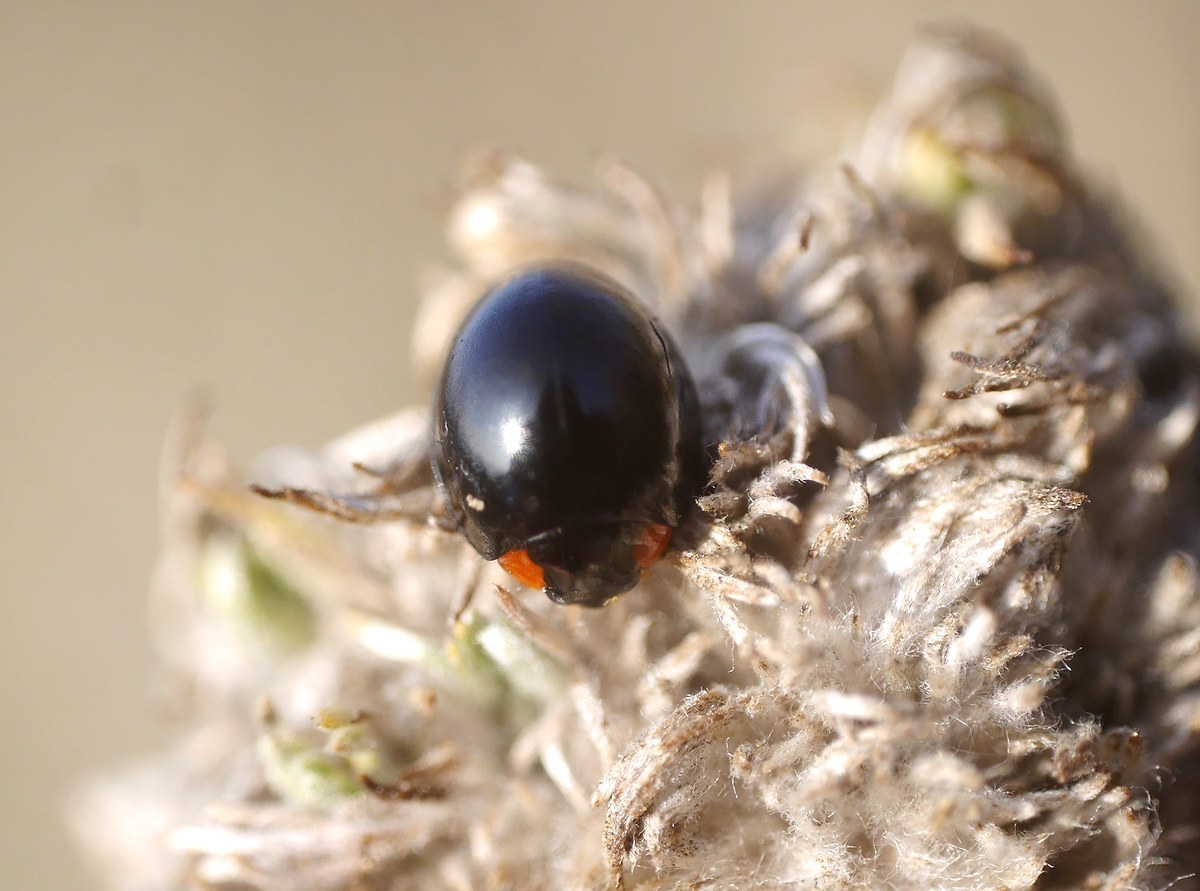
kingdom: Animalia
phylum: Arthropoda
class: Insecta
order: Coleoptera
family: Coccinellidae
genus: Parexochomus
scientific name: Parexochomus nigromaculatus
